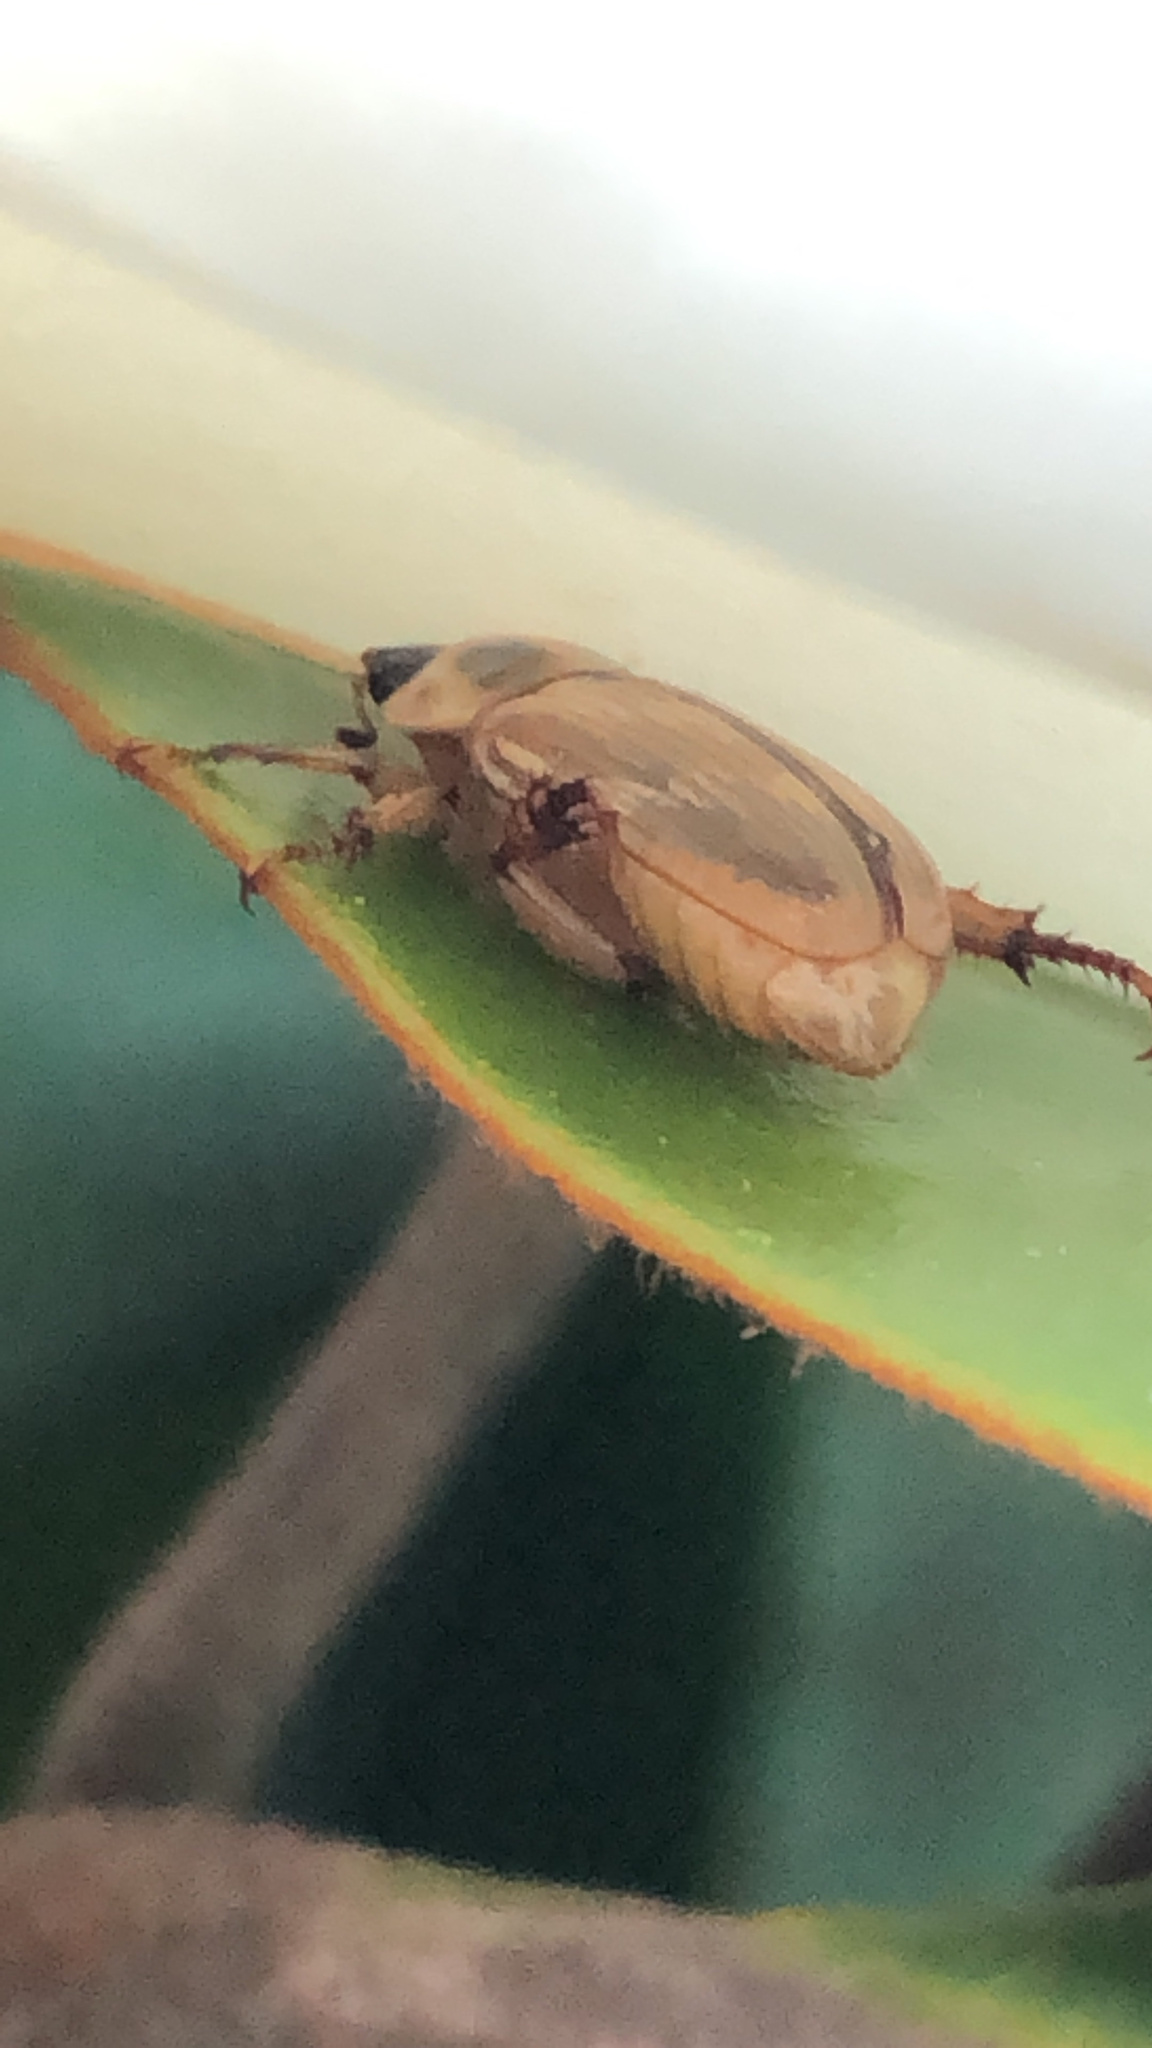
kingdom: Animalia
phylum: Arthropoda
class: Insecta
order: Coleoptera
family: Scarabaeidae
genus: Exomala
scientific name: Exomala orientalis
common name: Oriental beetle
